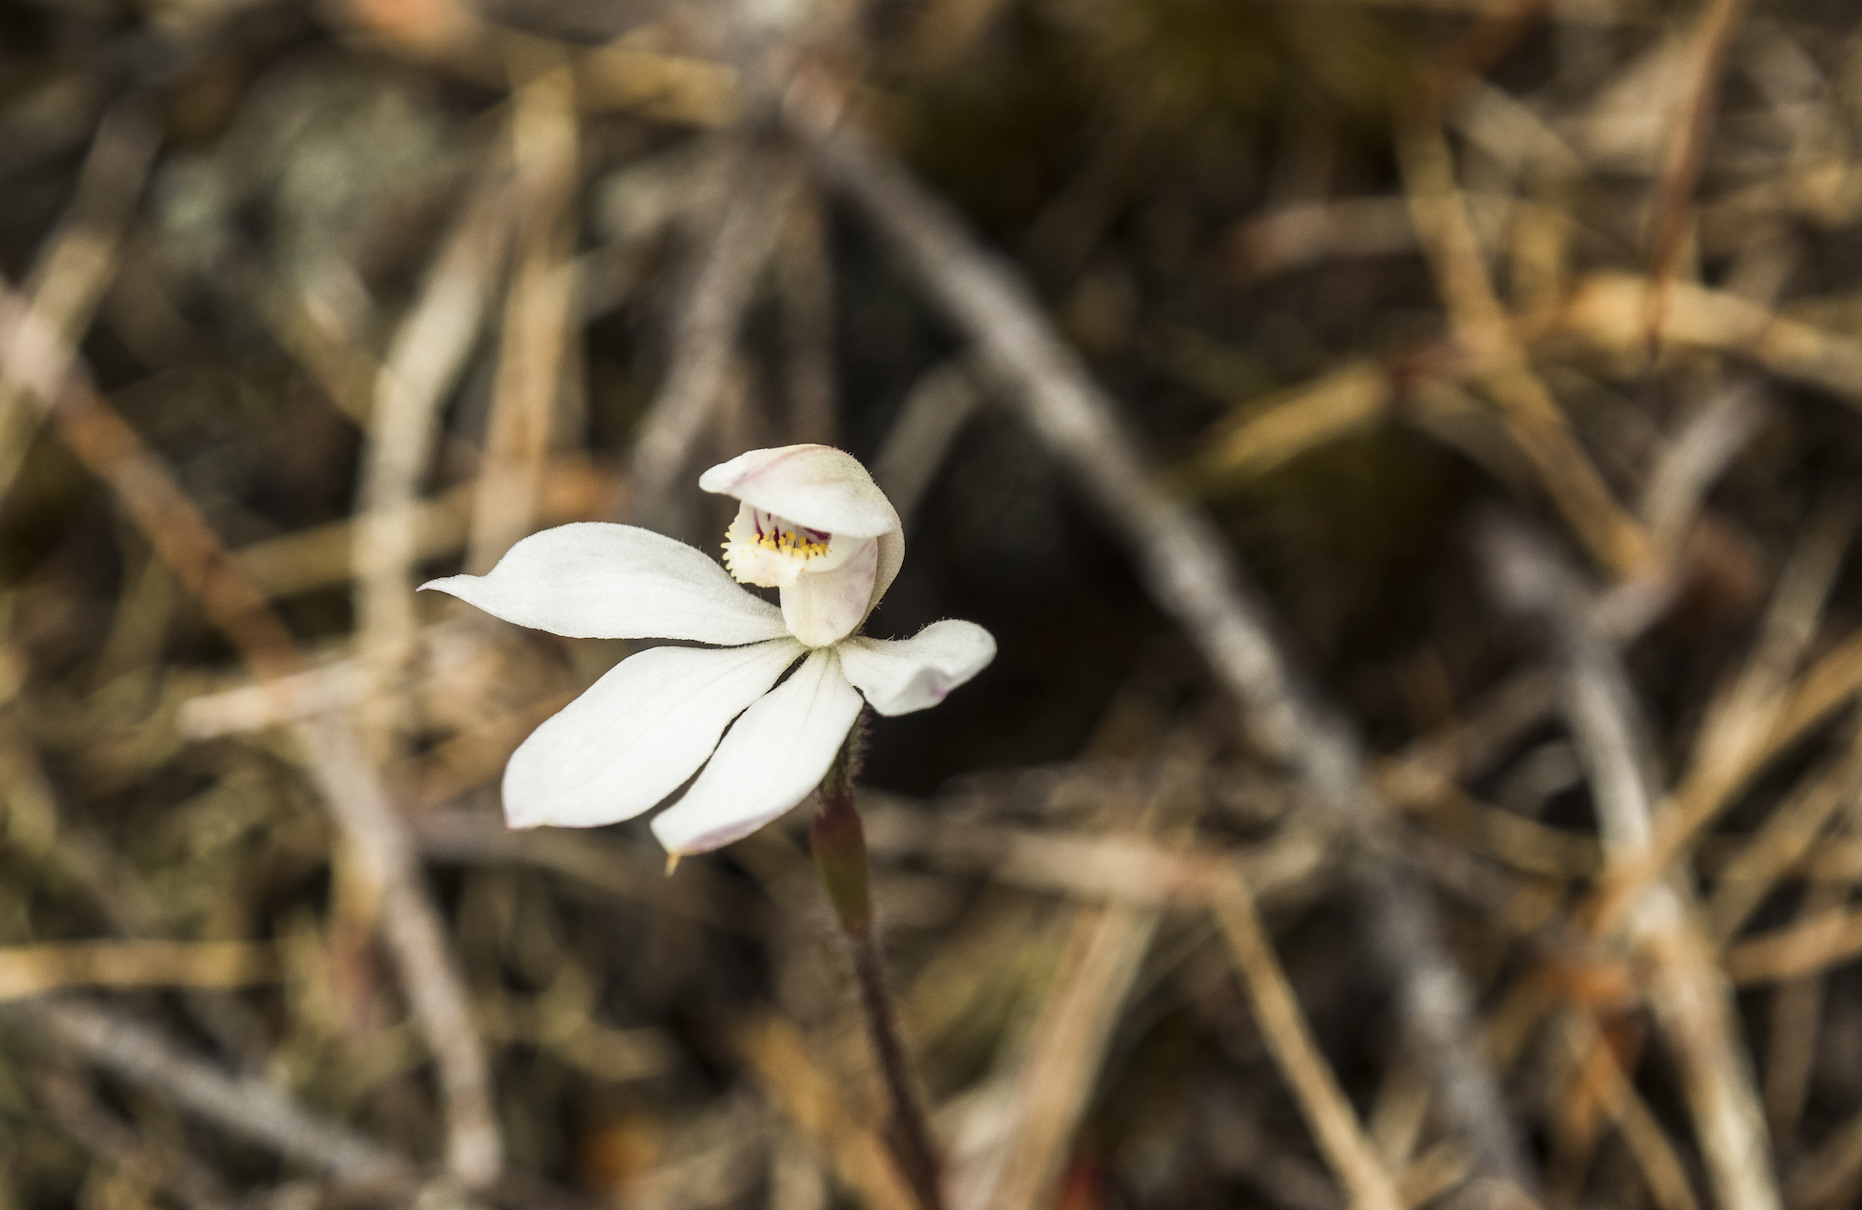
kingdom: Plantae
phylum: Tracheophyta
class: Liliopsida
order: Asparagales
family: Orchidaceae
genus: Caladenia
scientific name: Caladenia lyallii
